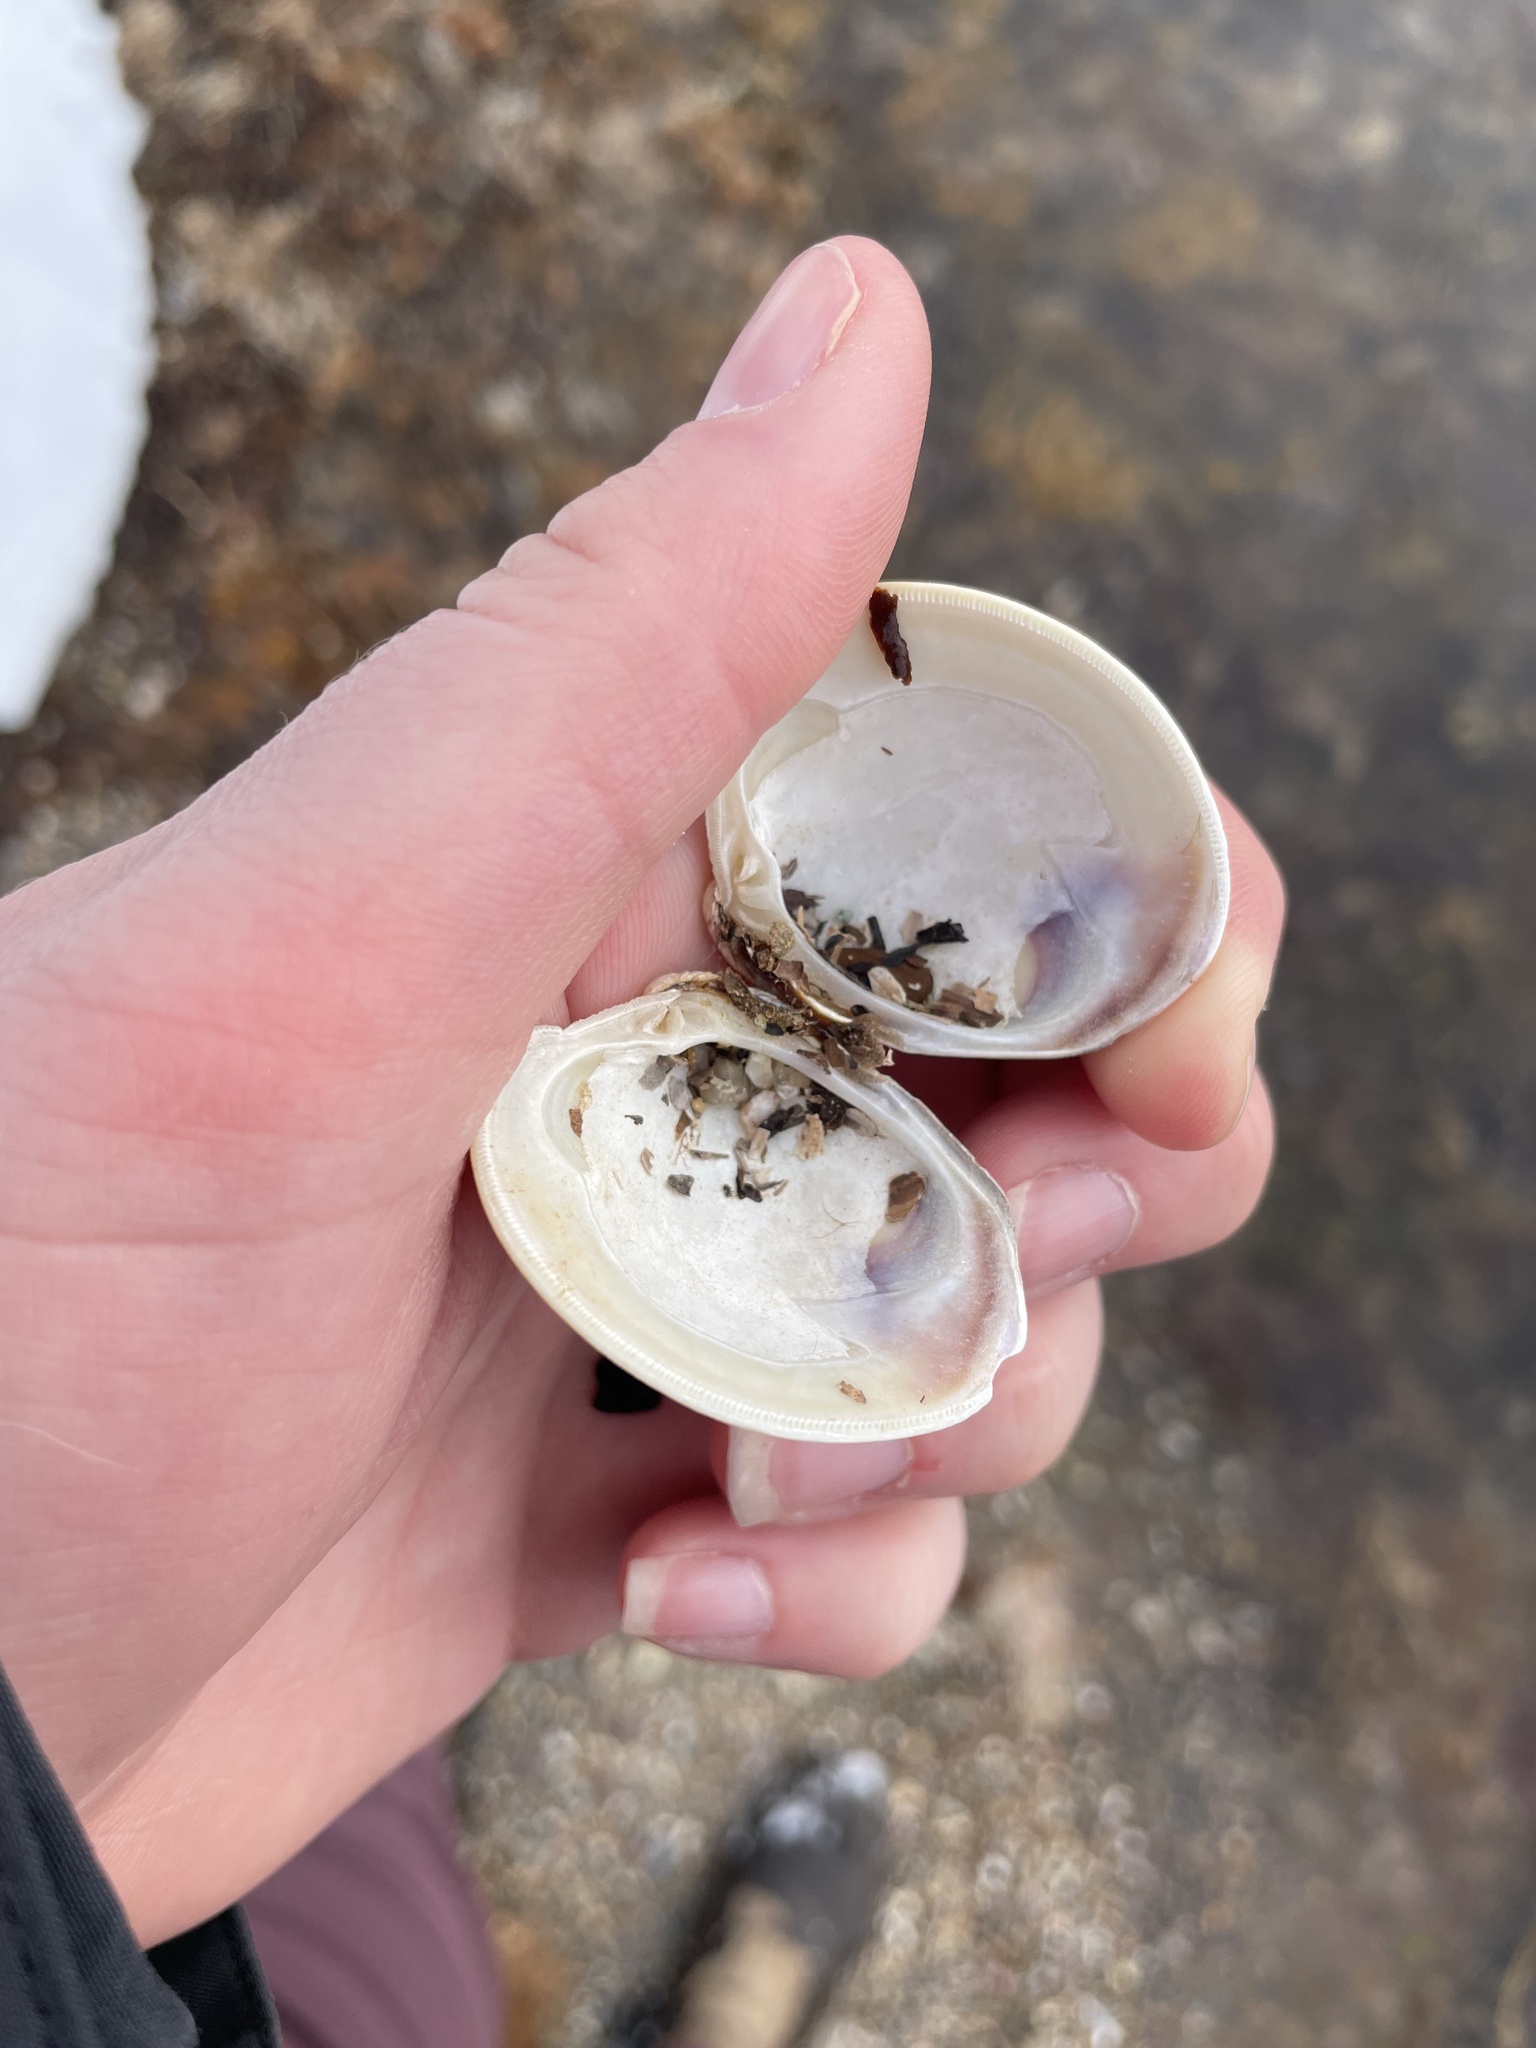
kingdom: Animalia
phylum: Mollusca
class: Bivalvia
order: Venerida
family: Veneridae
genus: Mercenaria
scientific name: Mercenaria mercenaria
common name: American hard-shelled clam
